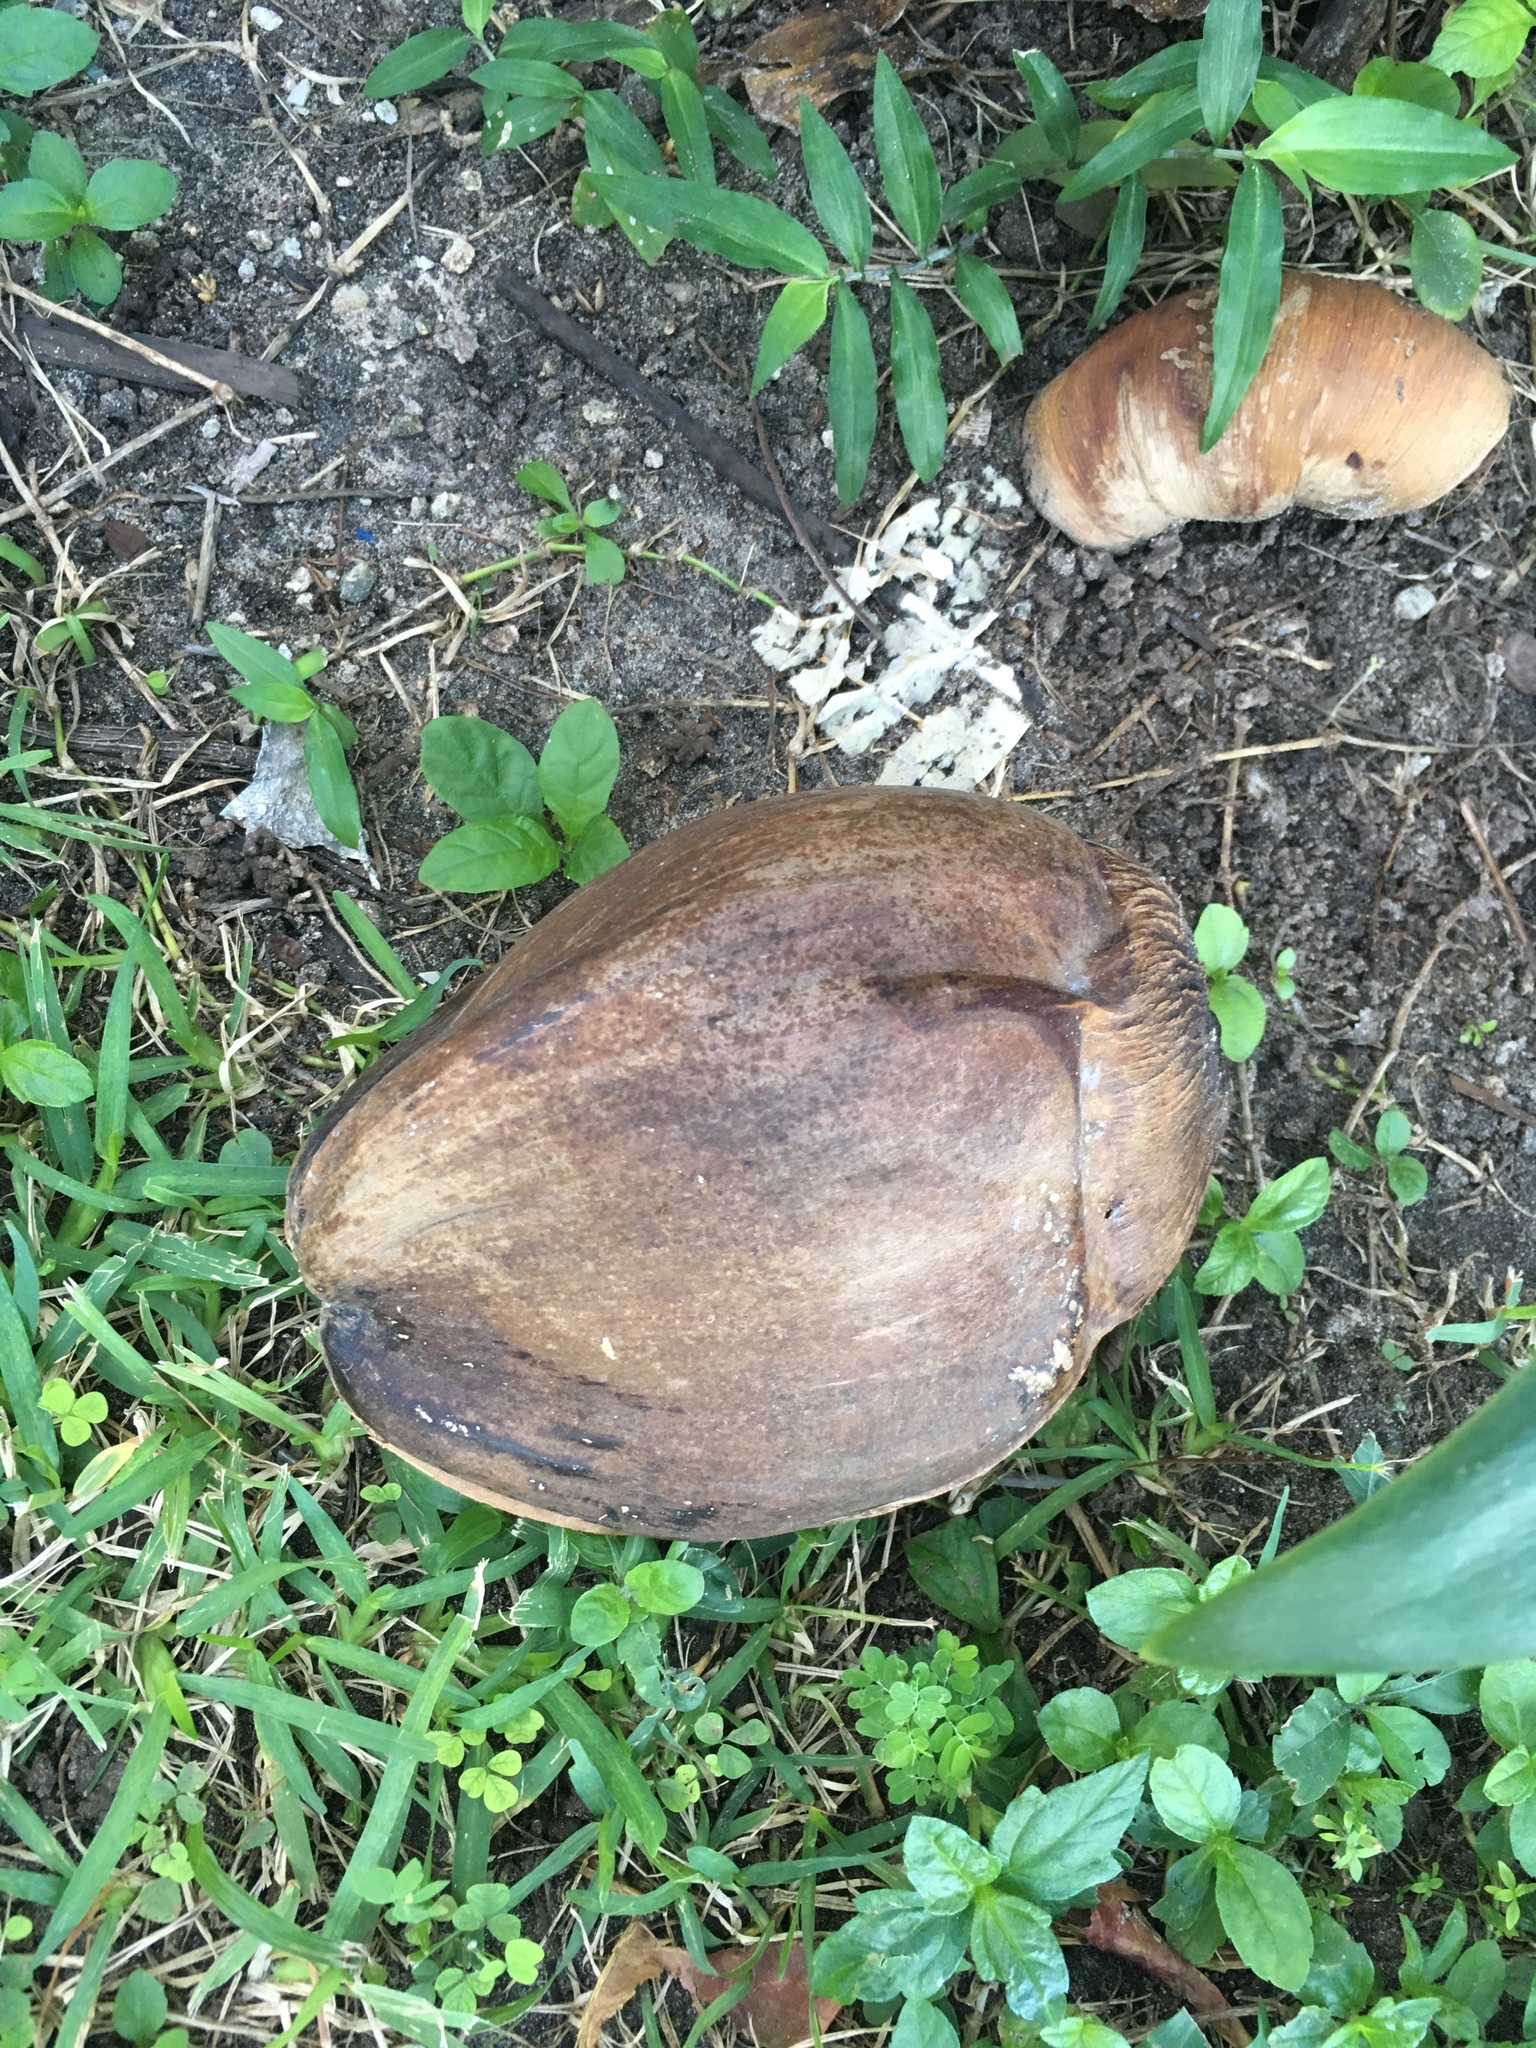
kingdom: Plantae
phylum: Tracheophyta
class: Liliopsida
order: Arecales
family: Arecaceae
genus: Cocos
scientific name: Cocos nucifera
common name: Coconut palm
